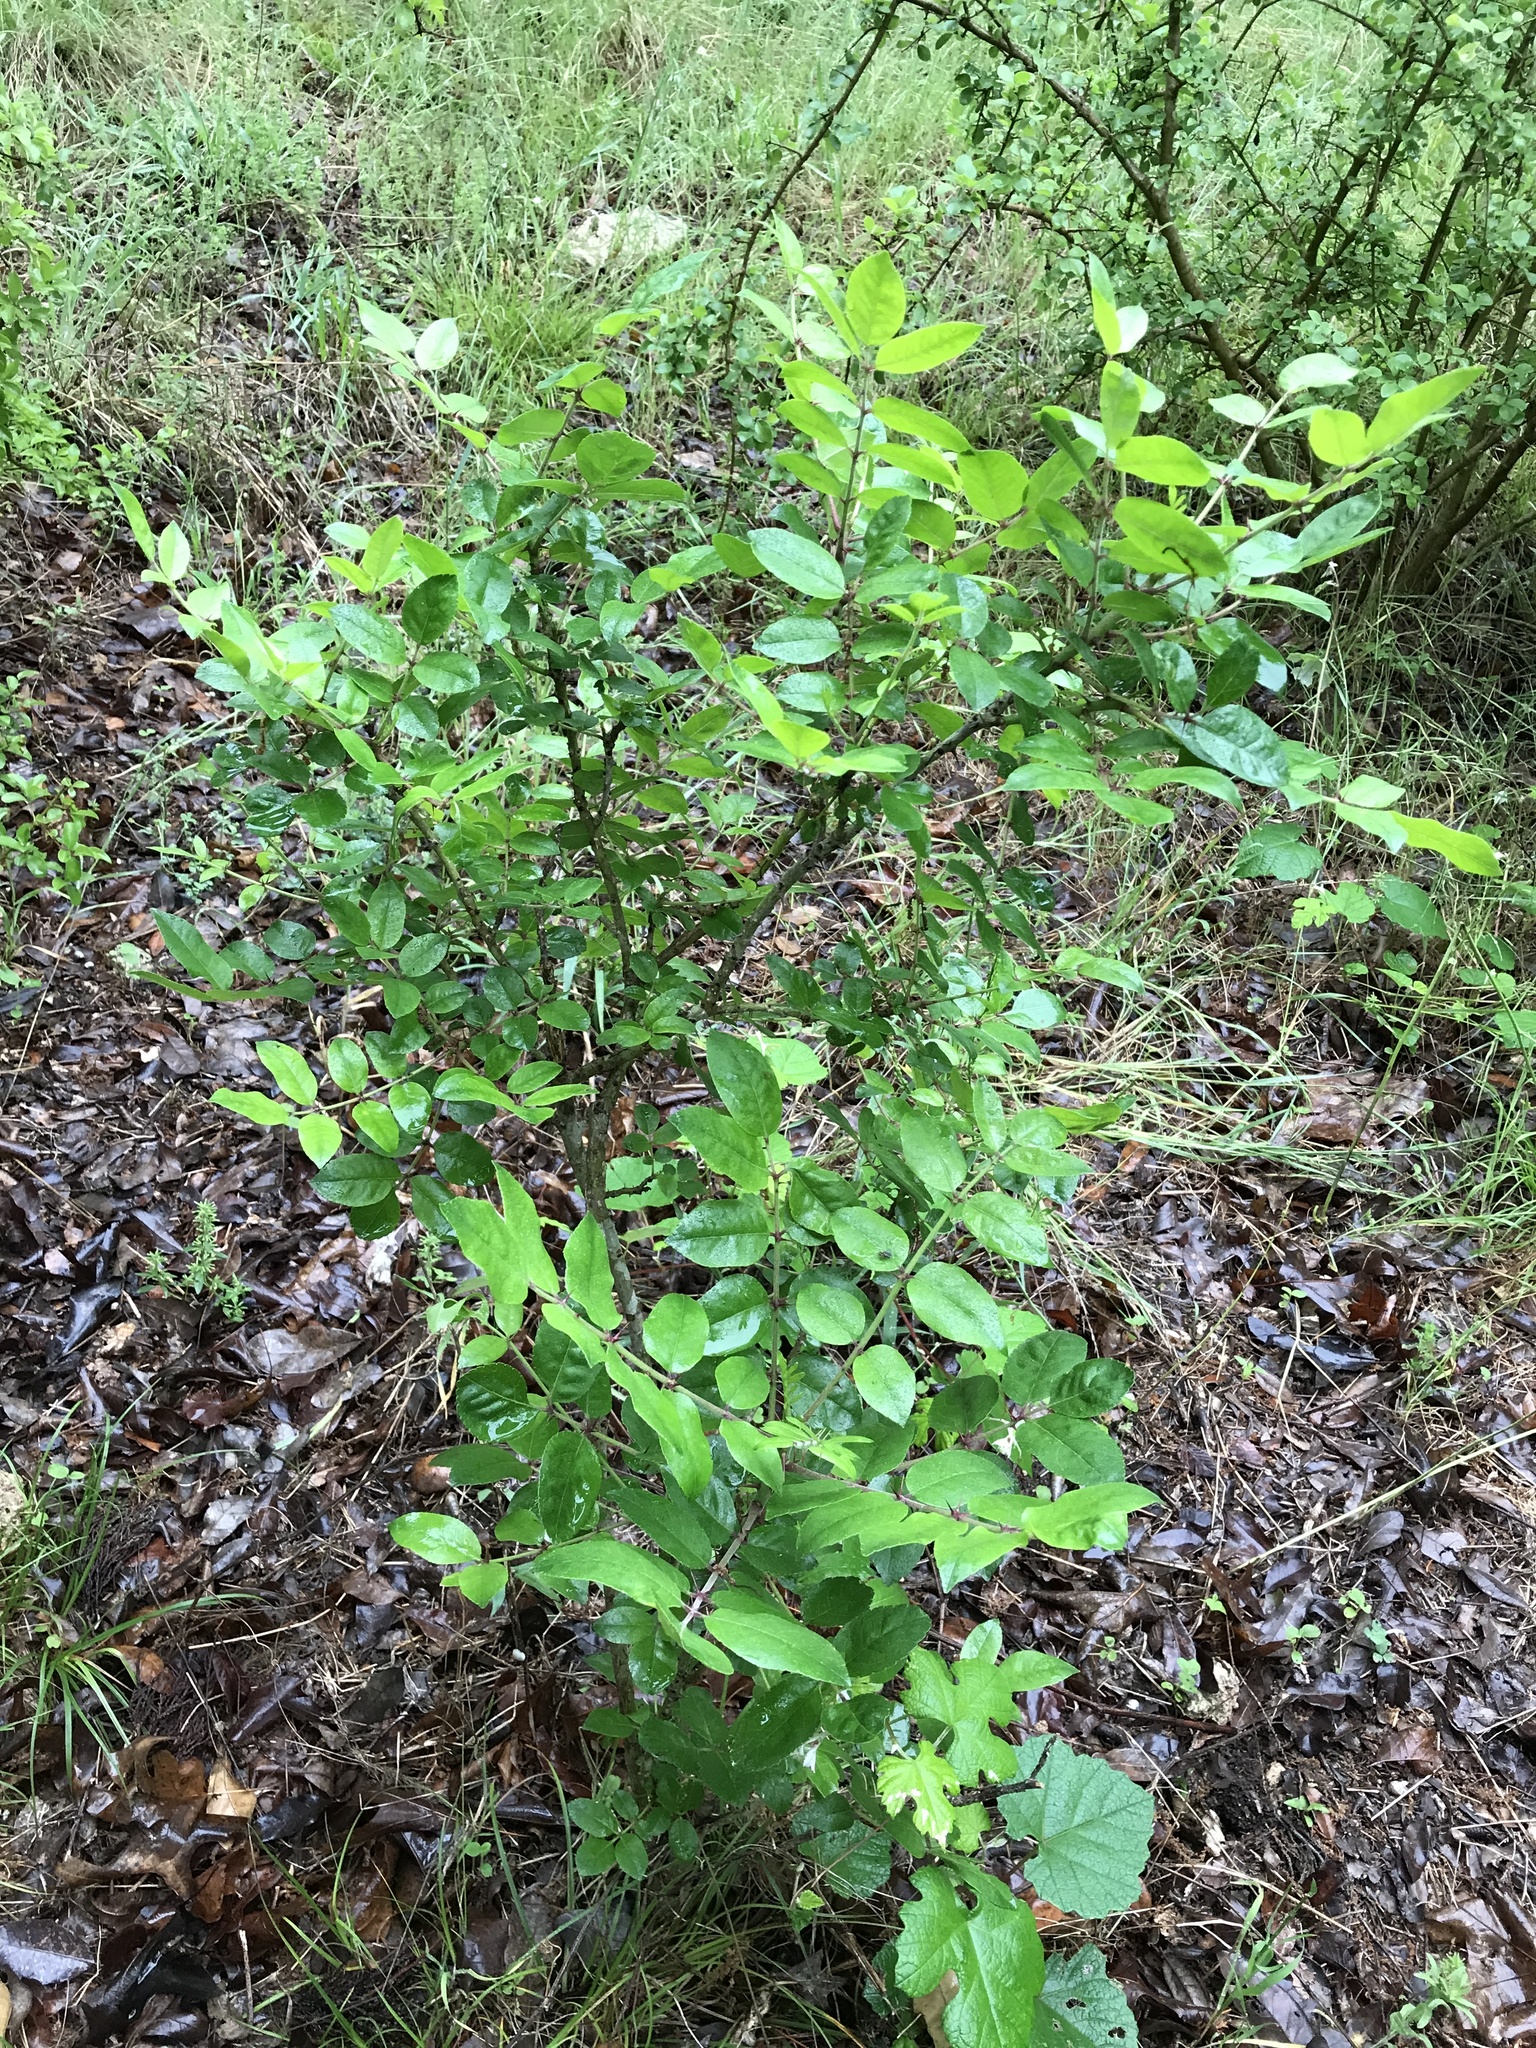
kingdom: Plantae
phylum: Tracheophyta
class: Magnoliopsida
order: Sapindales
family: Rutaceae
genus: Zanthoxylum
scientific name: Zanthoxylum clava-herculis
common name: Hercules'-club
